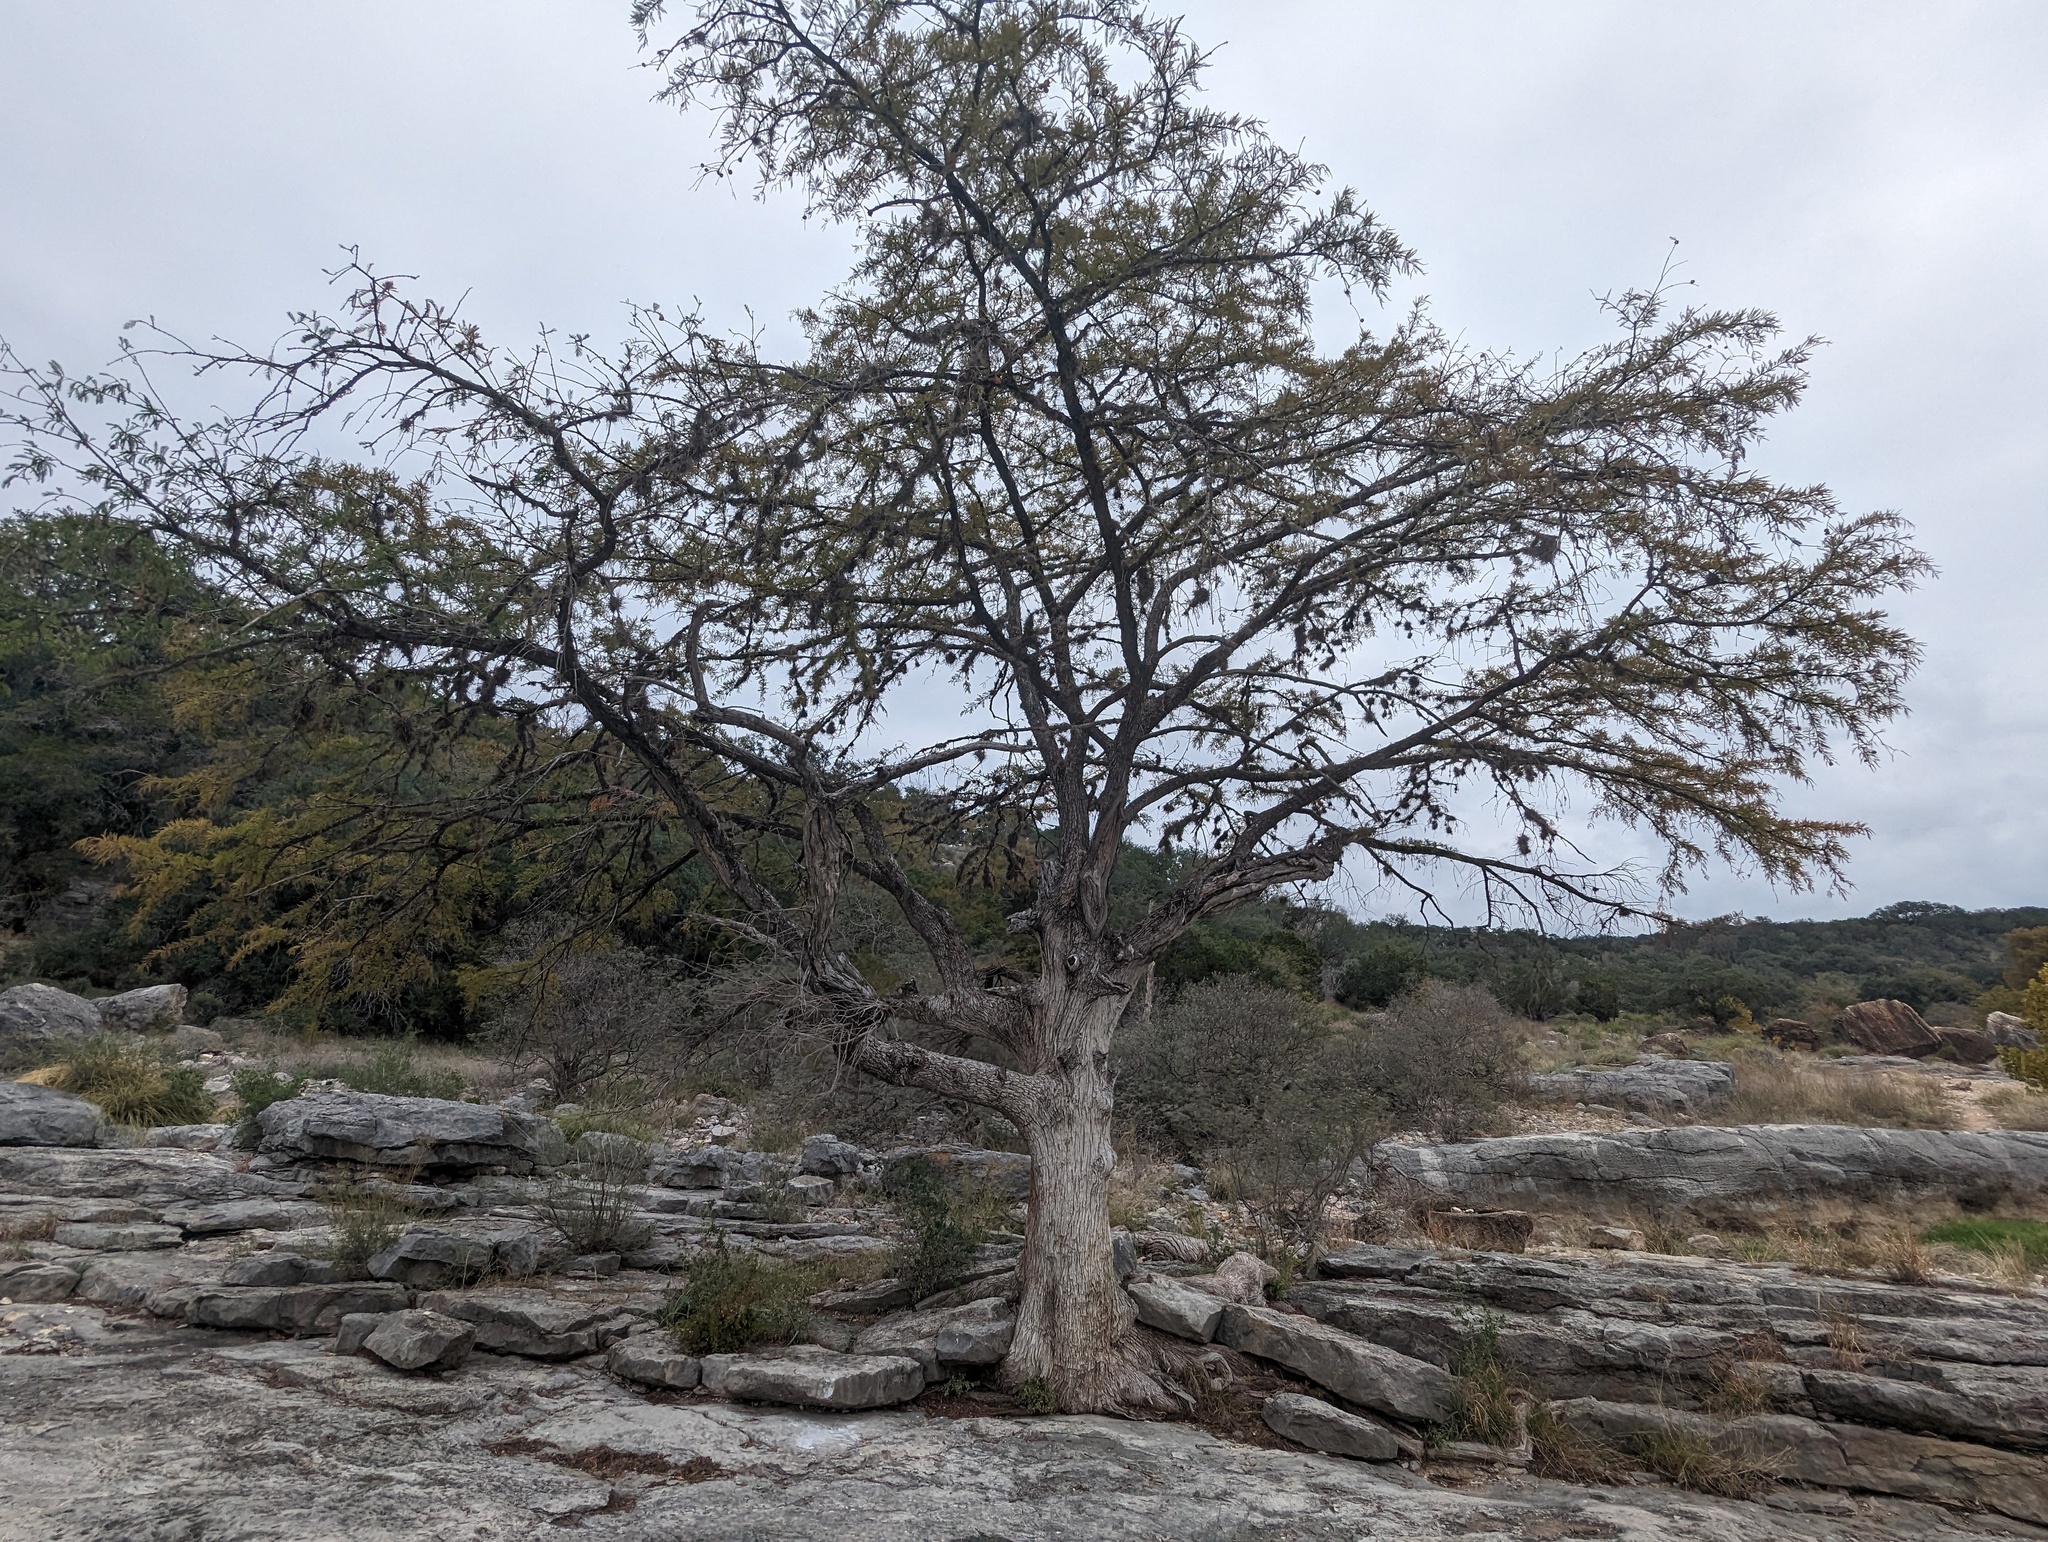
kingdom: Plantae
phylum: Tracheophyta
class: Pinopsida
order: Pinales
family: Cupressaceae
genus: Taxodium
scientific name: Taxodium distichum
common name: Bald cypress
